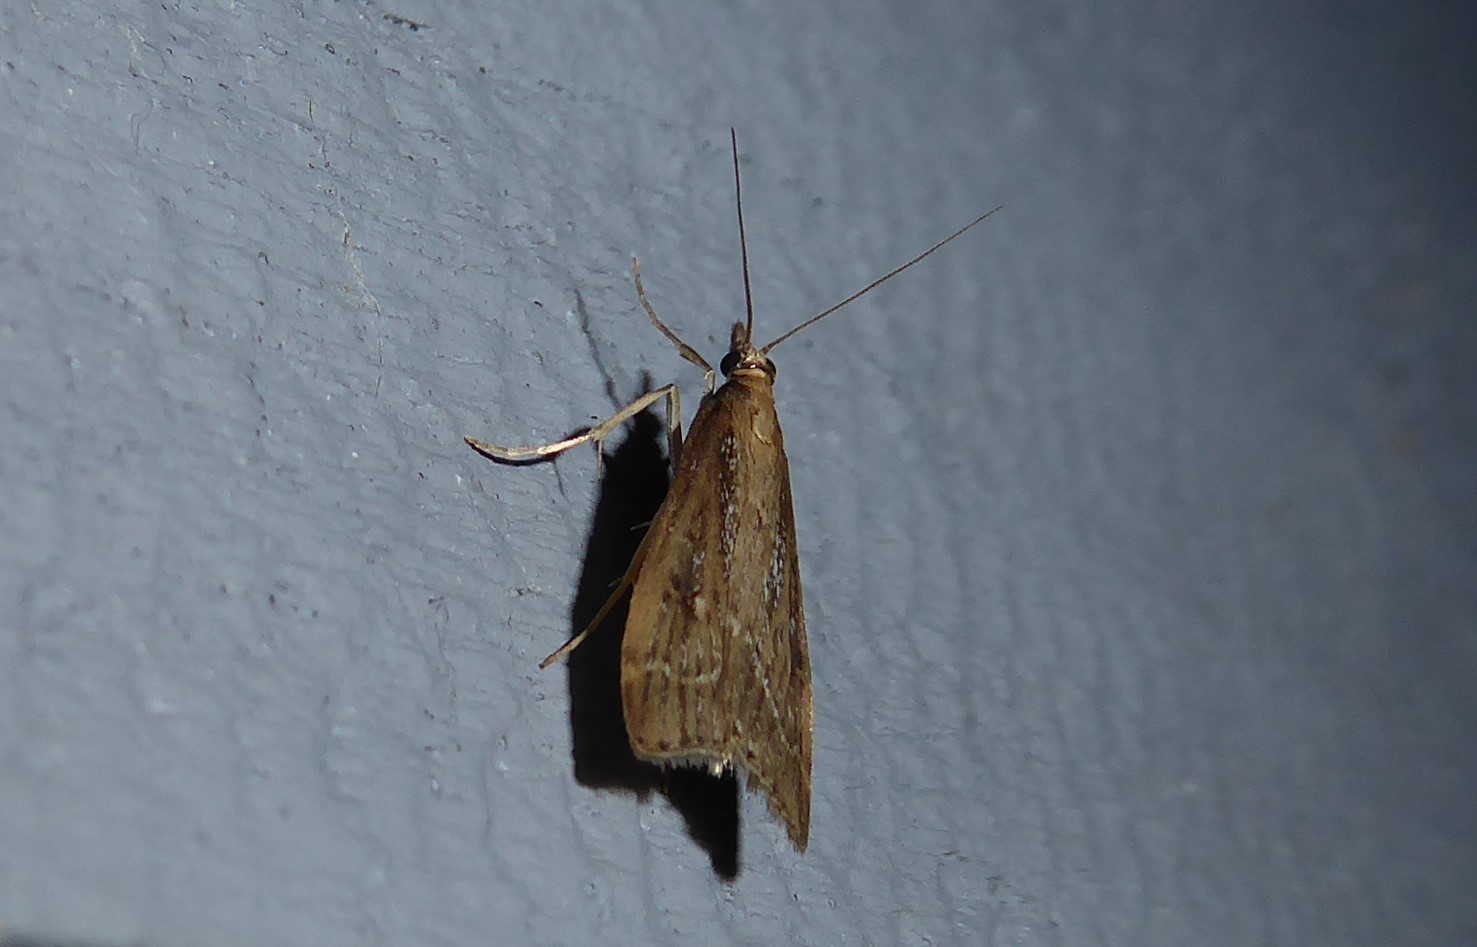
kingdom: Animalia
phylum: Arthropoda
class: Insecta
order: Lepidoptera
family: Crambidae
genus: Eudonia
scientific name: Eudonia octophora
